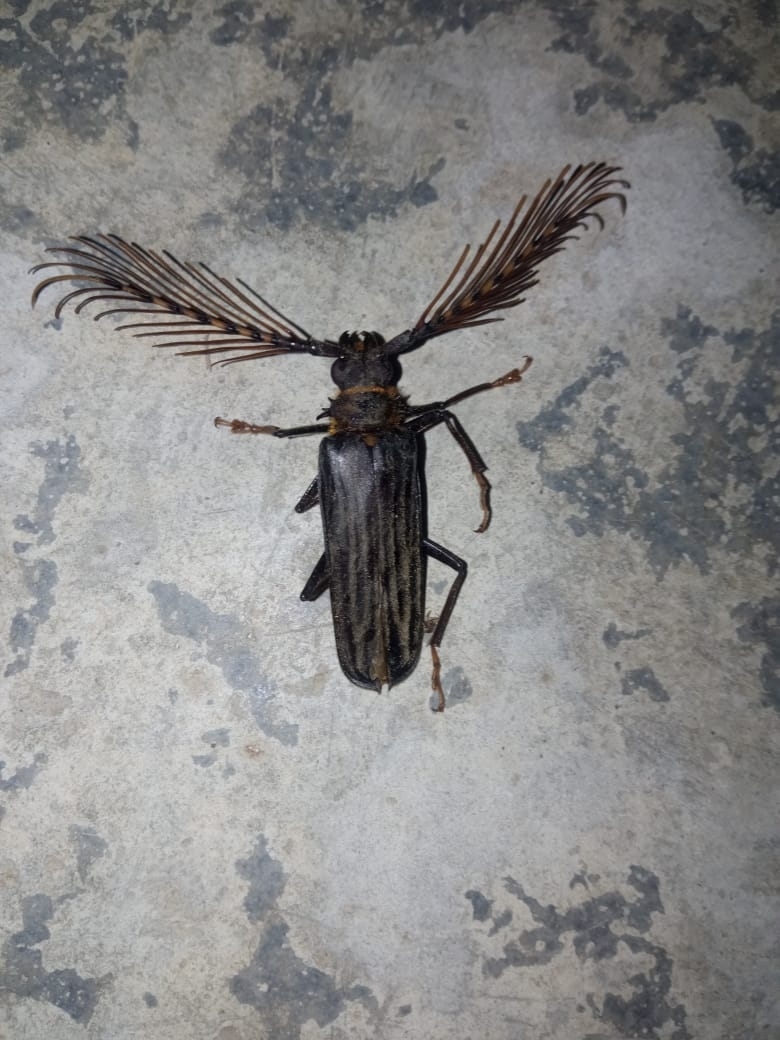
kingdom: Animalia
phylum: Arthropoda
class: Insecta
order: Coleoptera
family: Cerambycidae
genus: Sarifer
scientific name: Sarifer flavirameus
